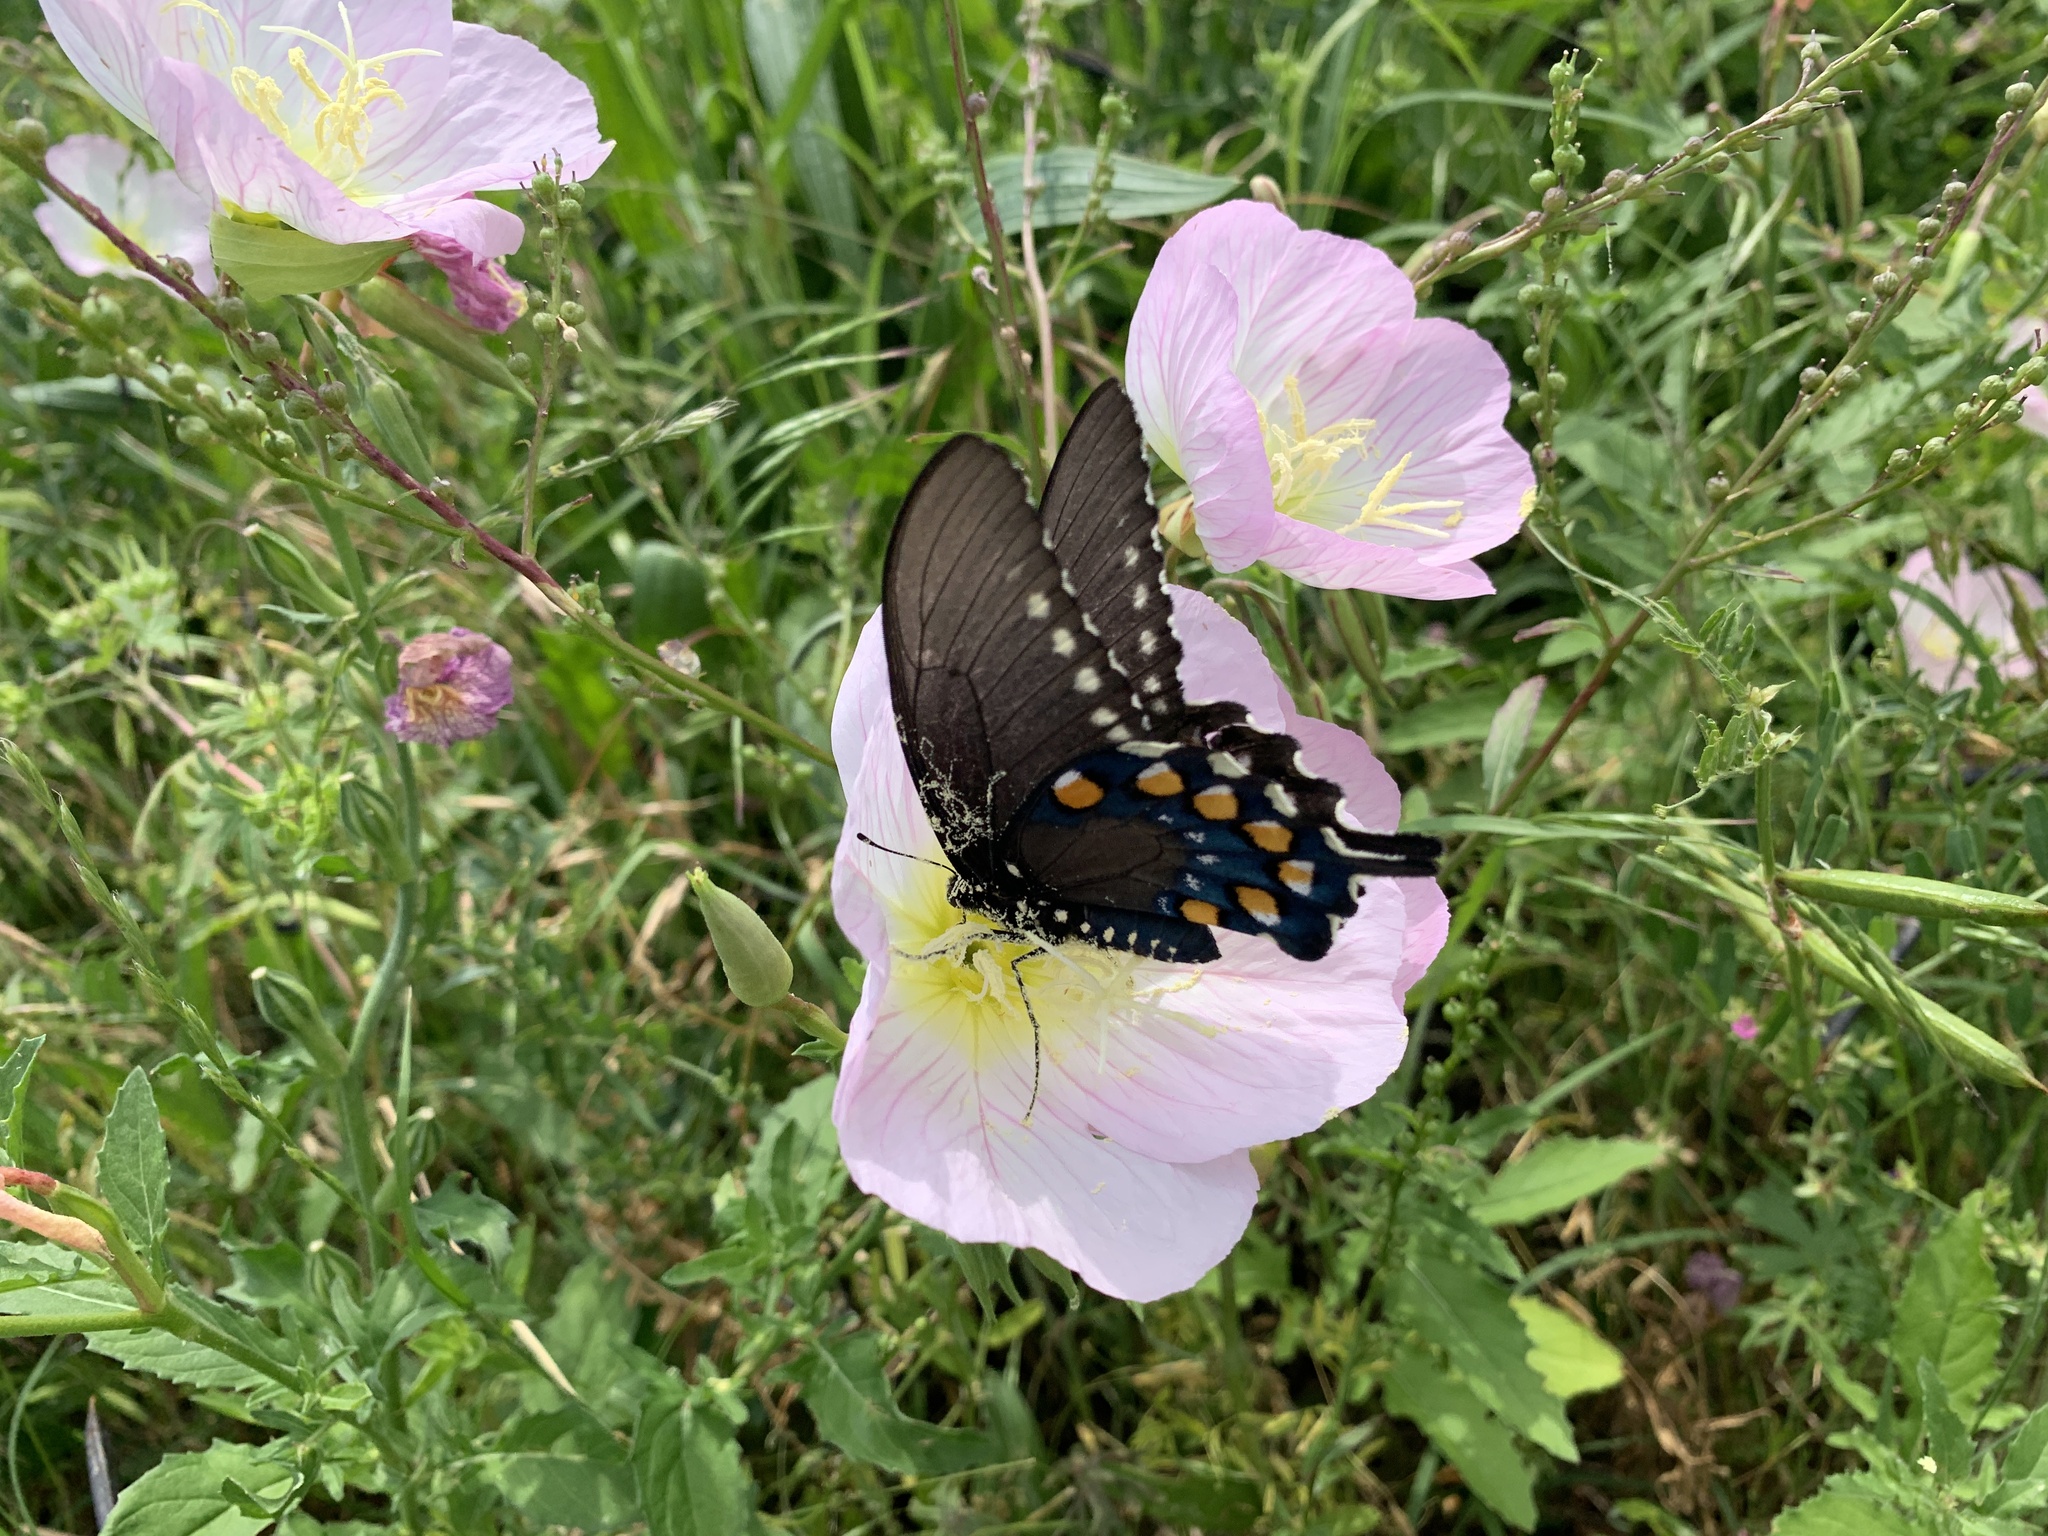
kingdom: Animalia
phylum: Arthropoda
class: Insecta
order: Lepidoptera
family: Papilionidae
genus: Battus
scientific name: Battus philenor
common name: Pipevine swallowtail
